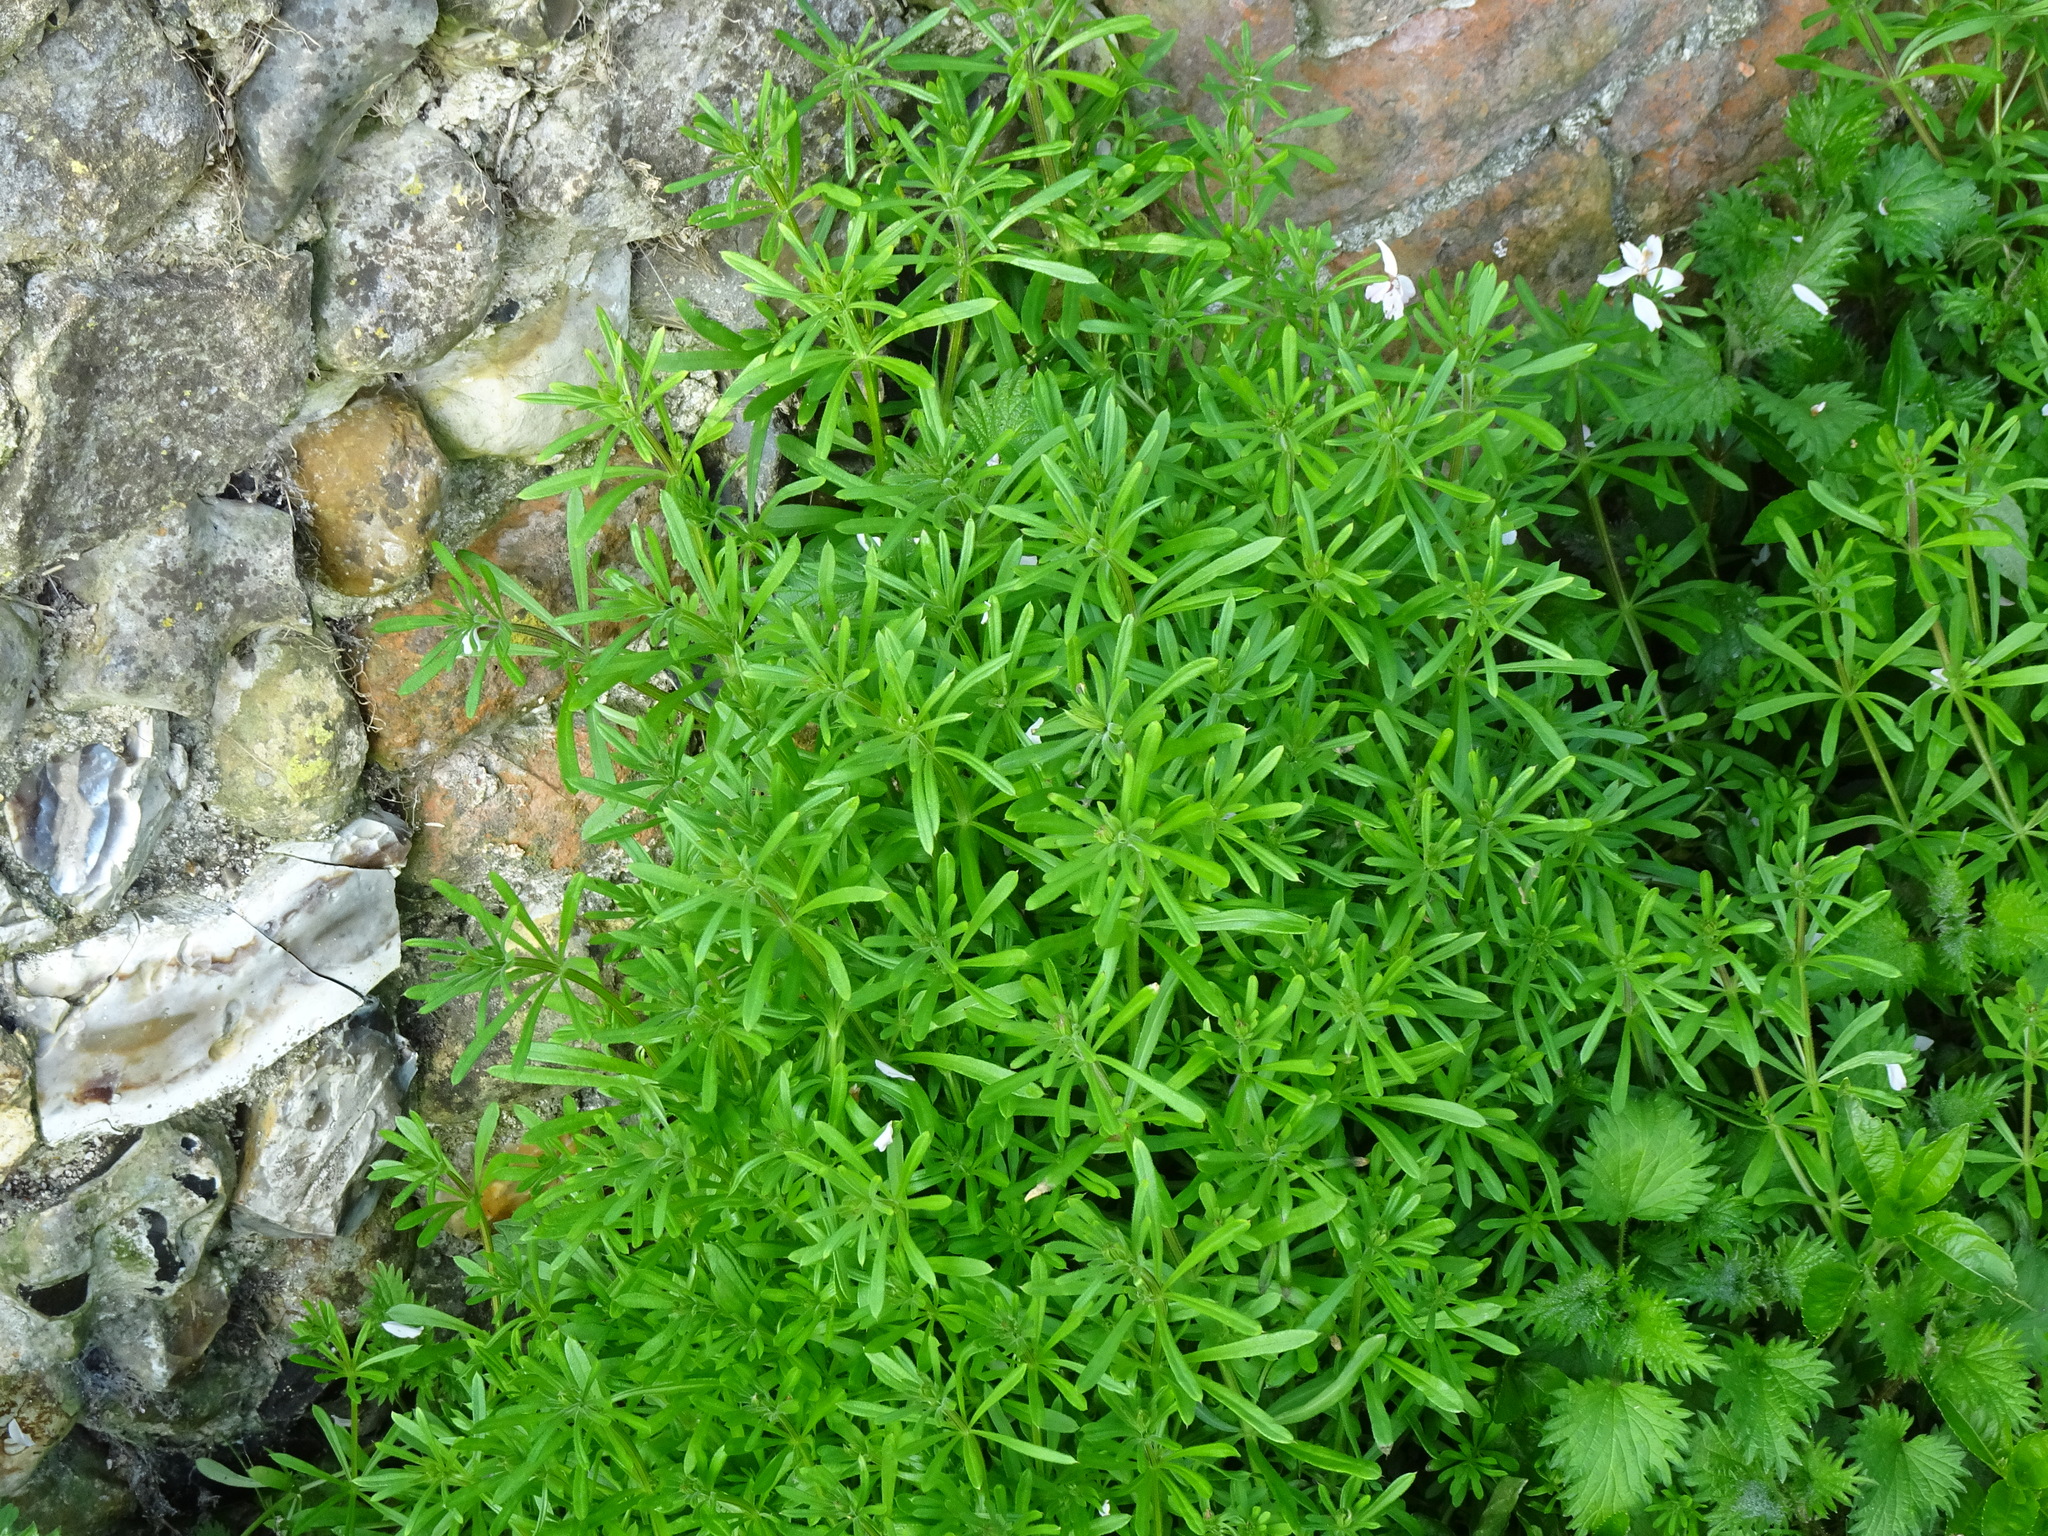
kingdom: Plantae
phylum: Tracheophyta
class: Magnoliopsida
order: Gentianales
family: Rubiaceae
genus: Galium
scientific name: Galium aparine
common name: Cleavers
